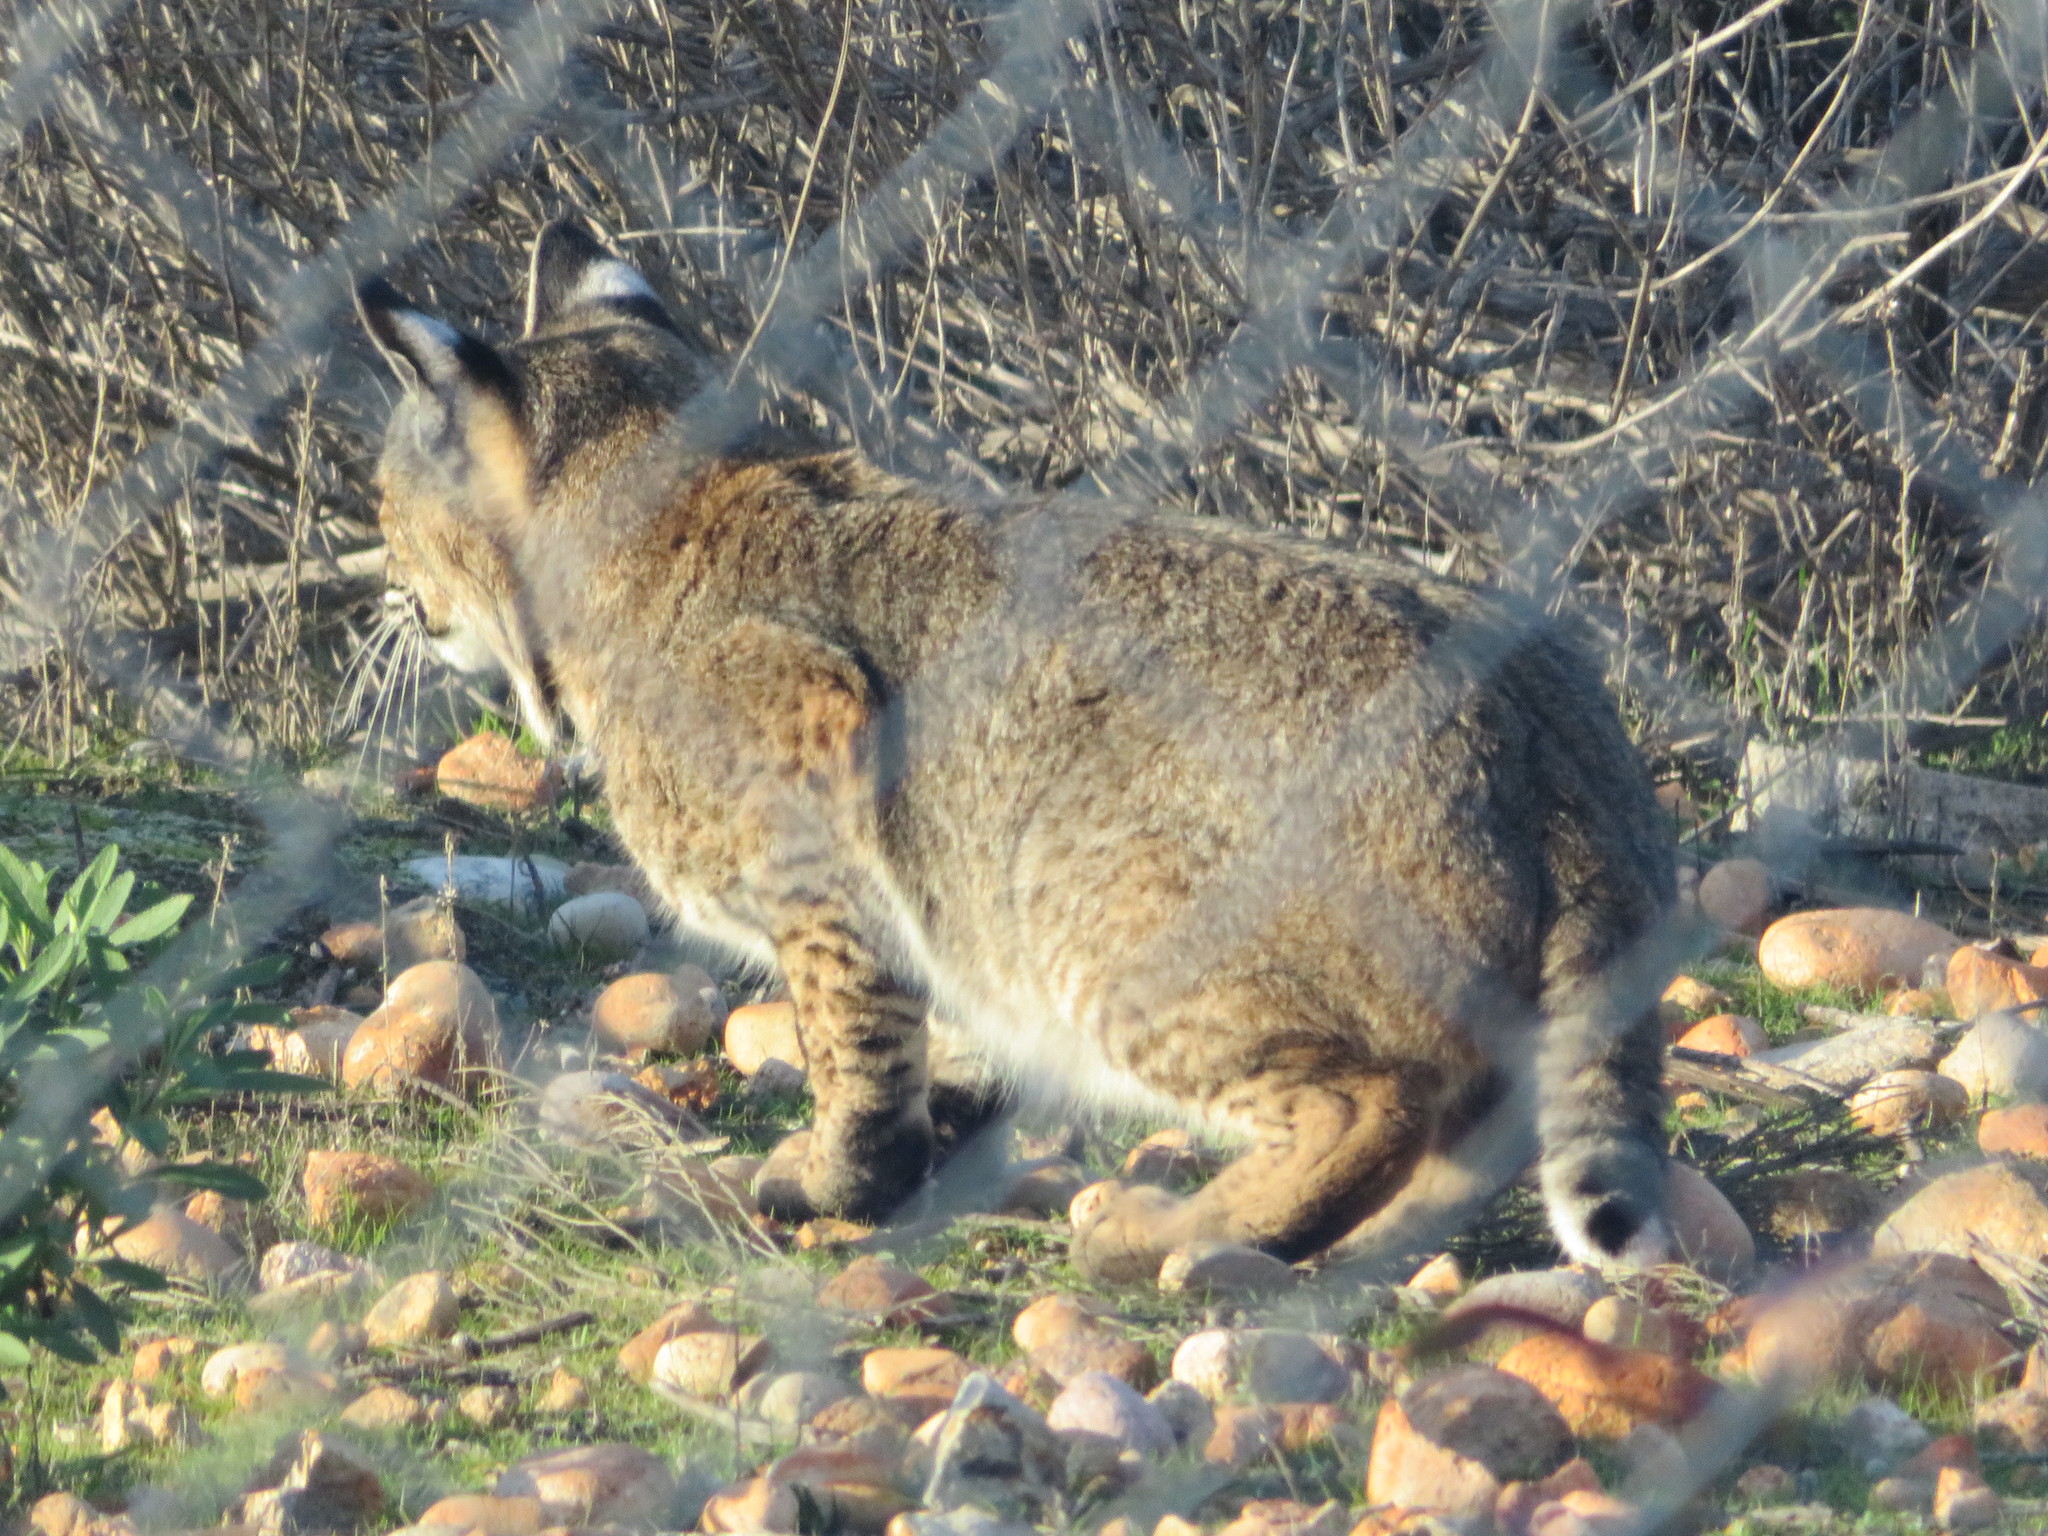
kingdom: Animalia
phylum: Chordata
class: Mammalia
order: Carnivora
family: Felidae
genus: Lynx
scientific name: Lynx rufus
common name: Bobcat
